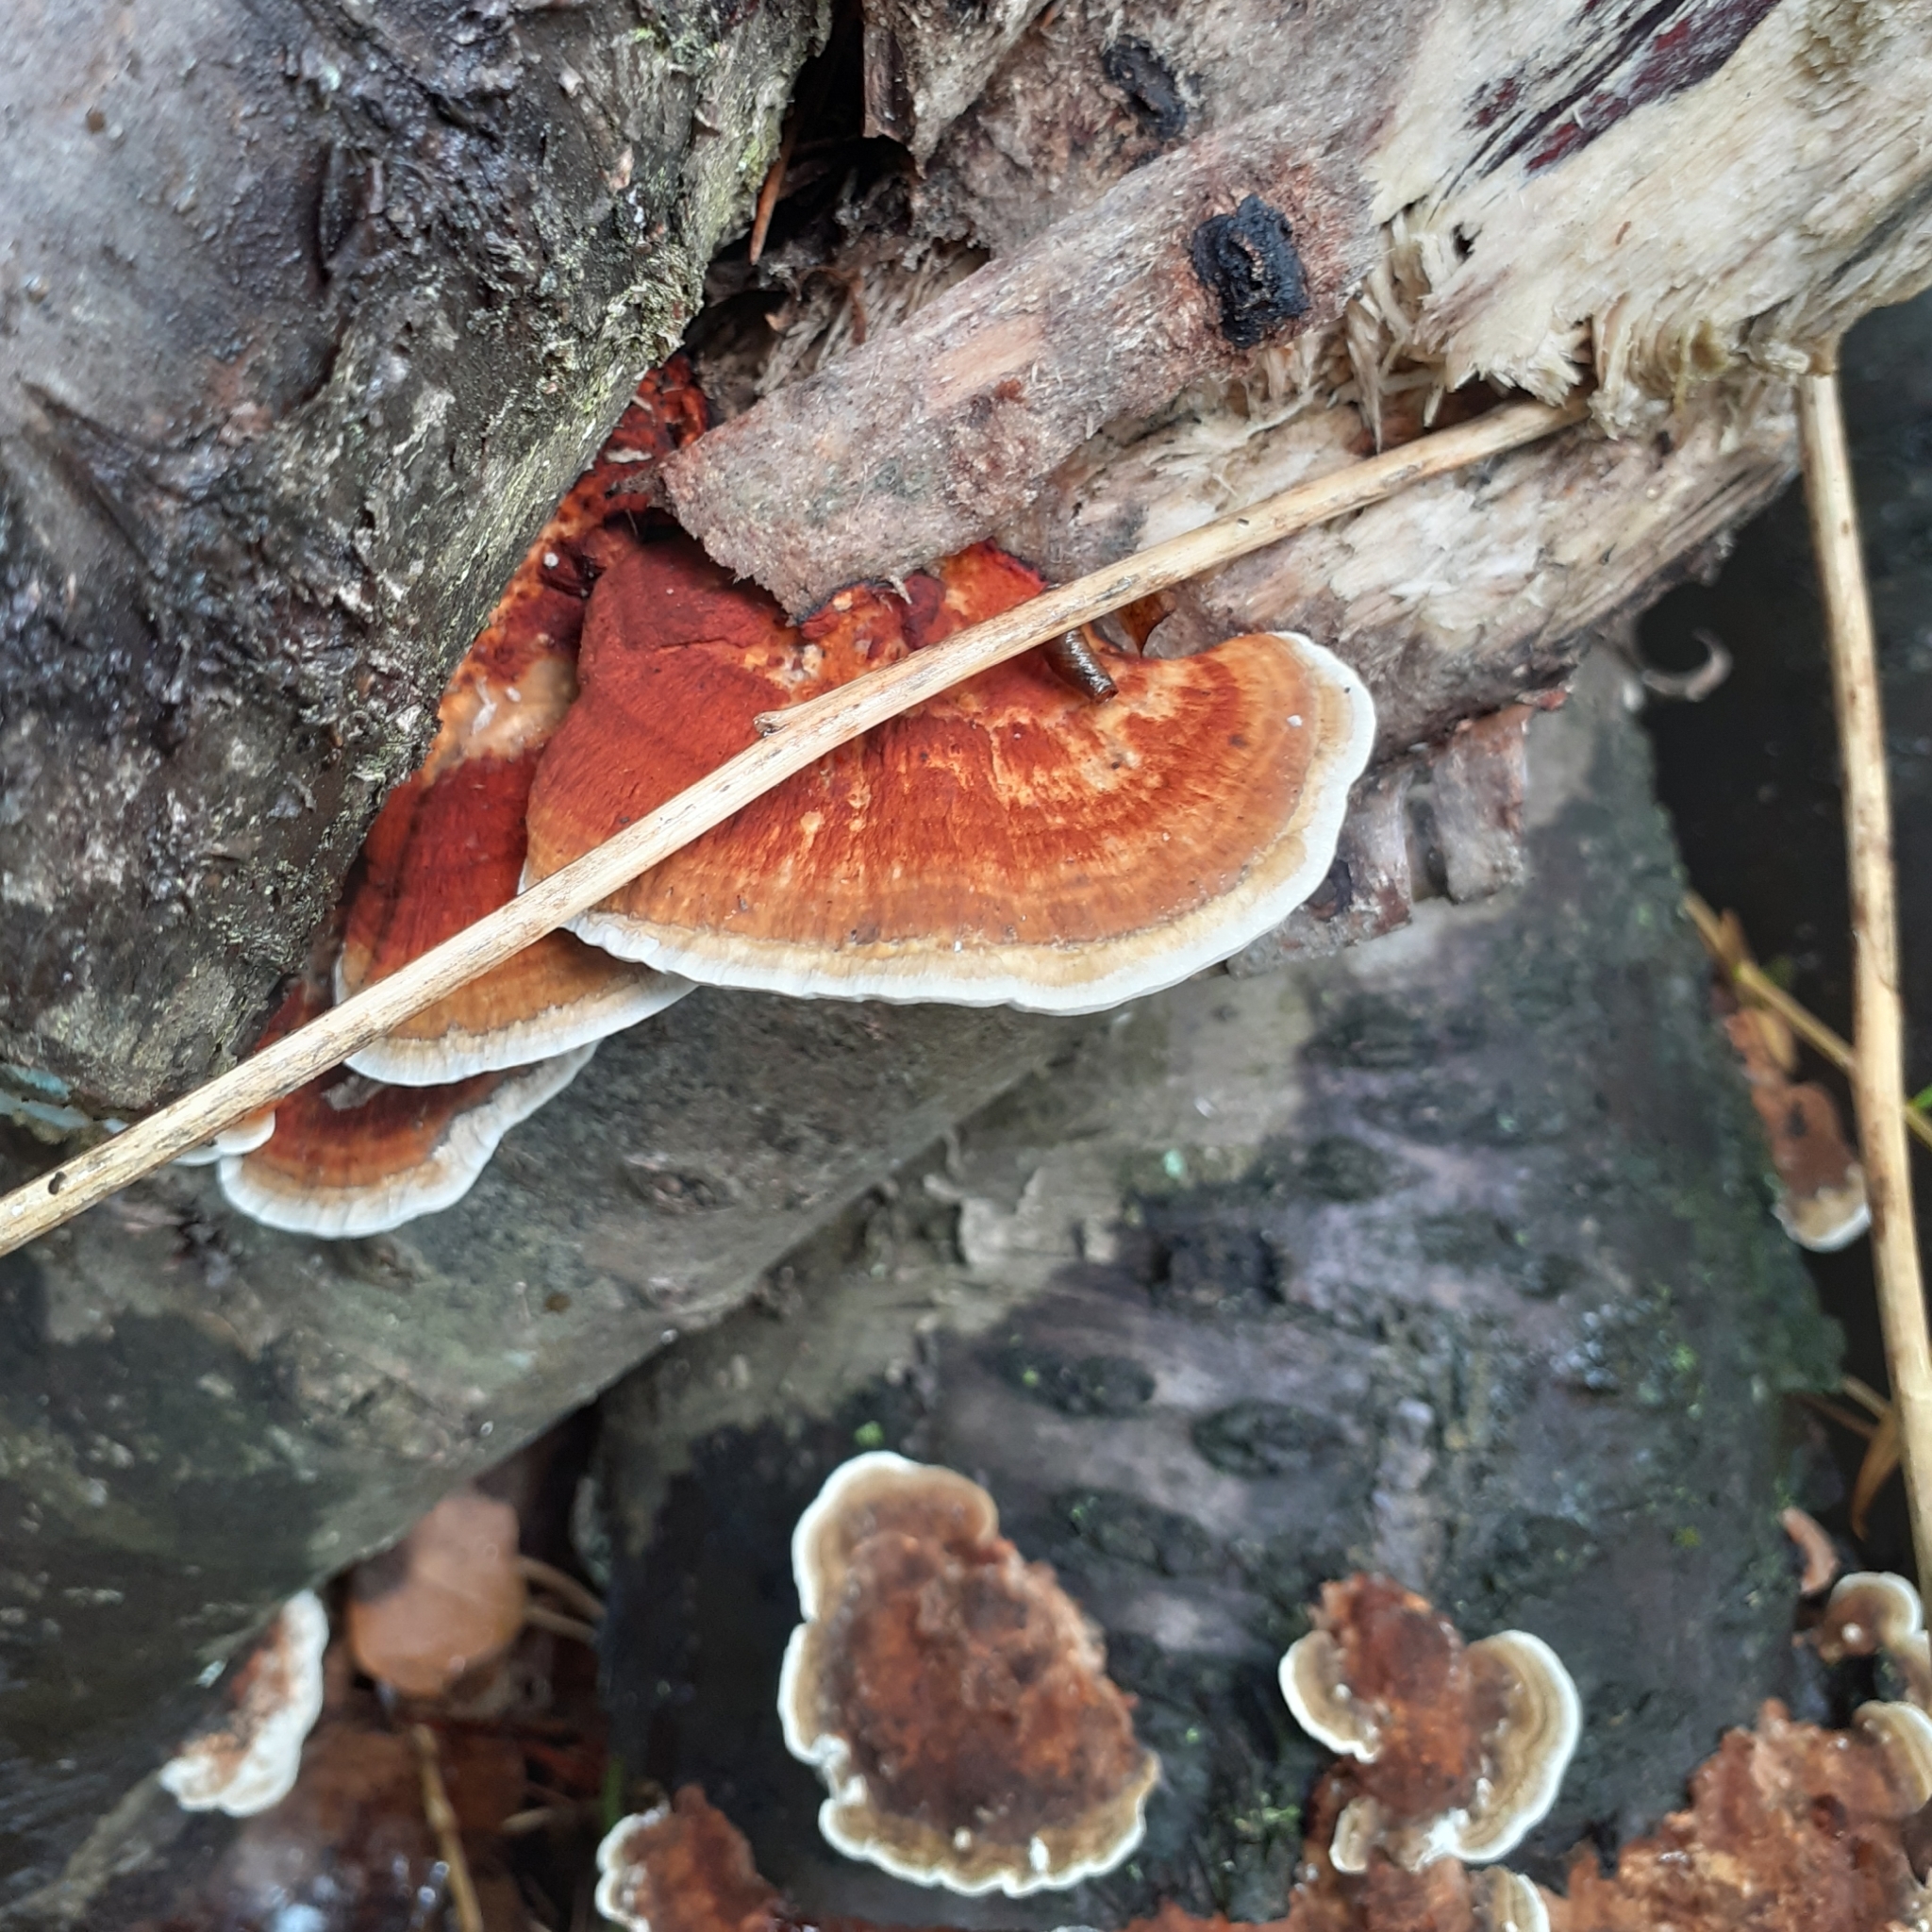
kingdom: Fungi
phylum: Basidiomycota
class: Agaricomycetes
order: Polyporales
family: Polyporaceae
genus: Daedaleopsis
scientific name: Daedaleopsis tricolor
